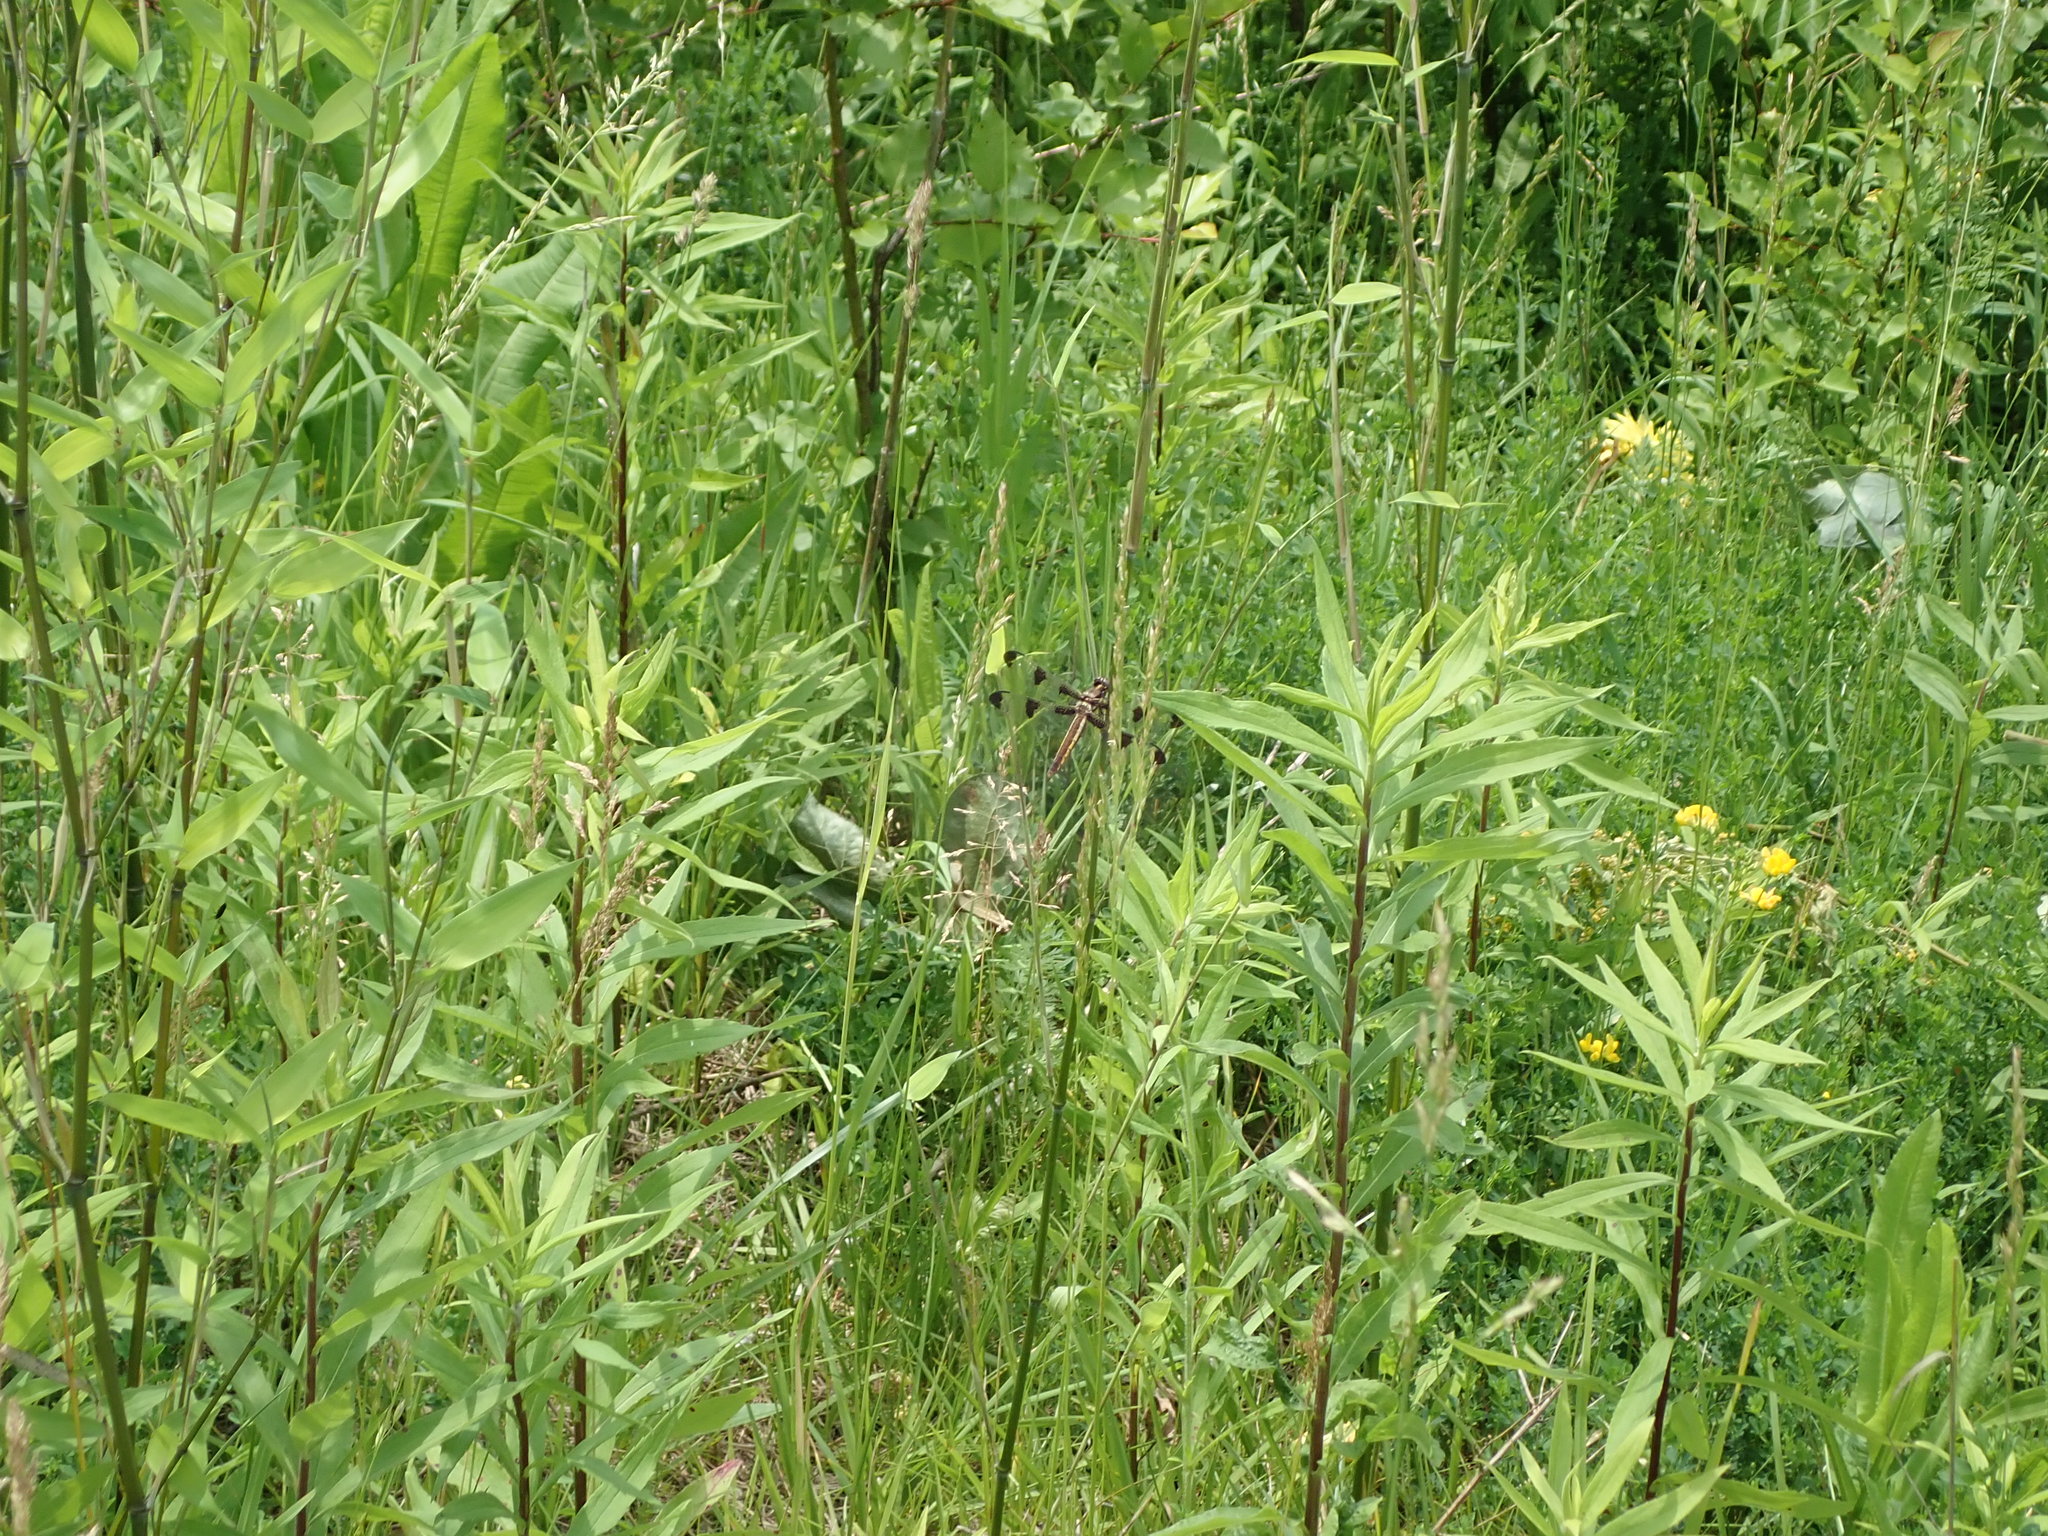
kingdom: Animalia
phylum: Arthropoda
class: Insecta
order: Odonata
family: Libellulidae
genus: Libellula
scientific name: Libellula pulchella
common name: Twelve-spotted skimmer
